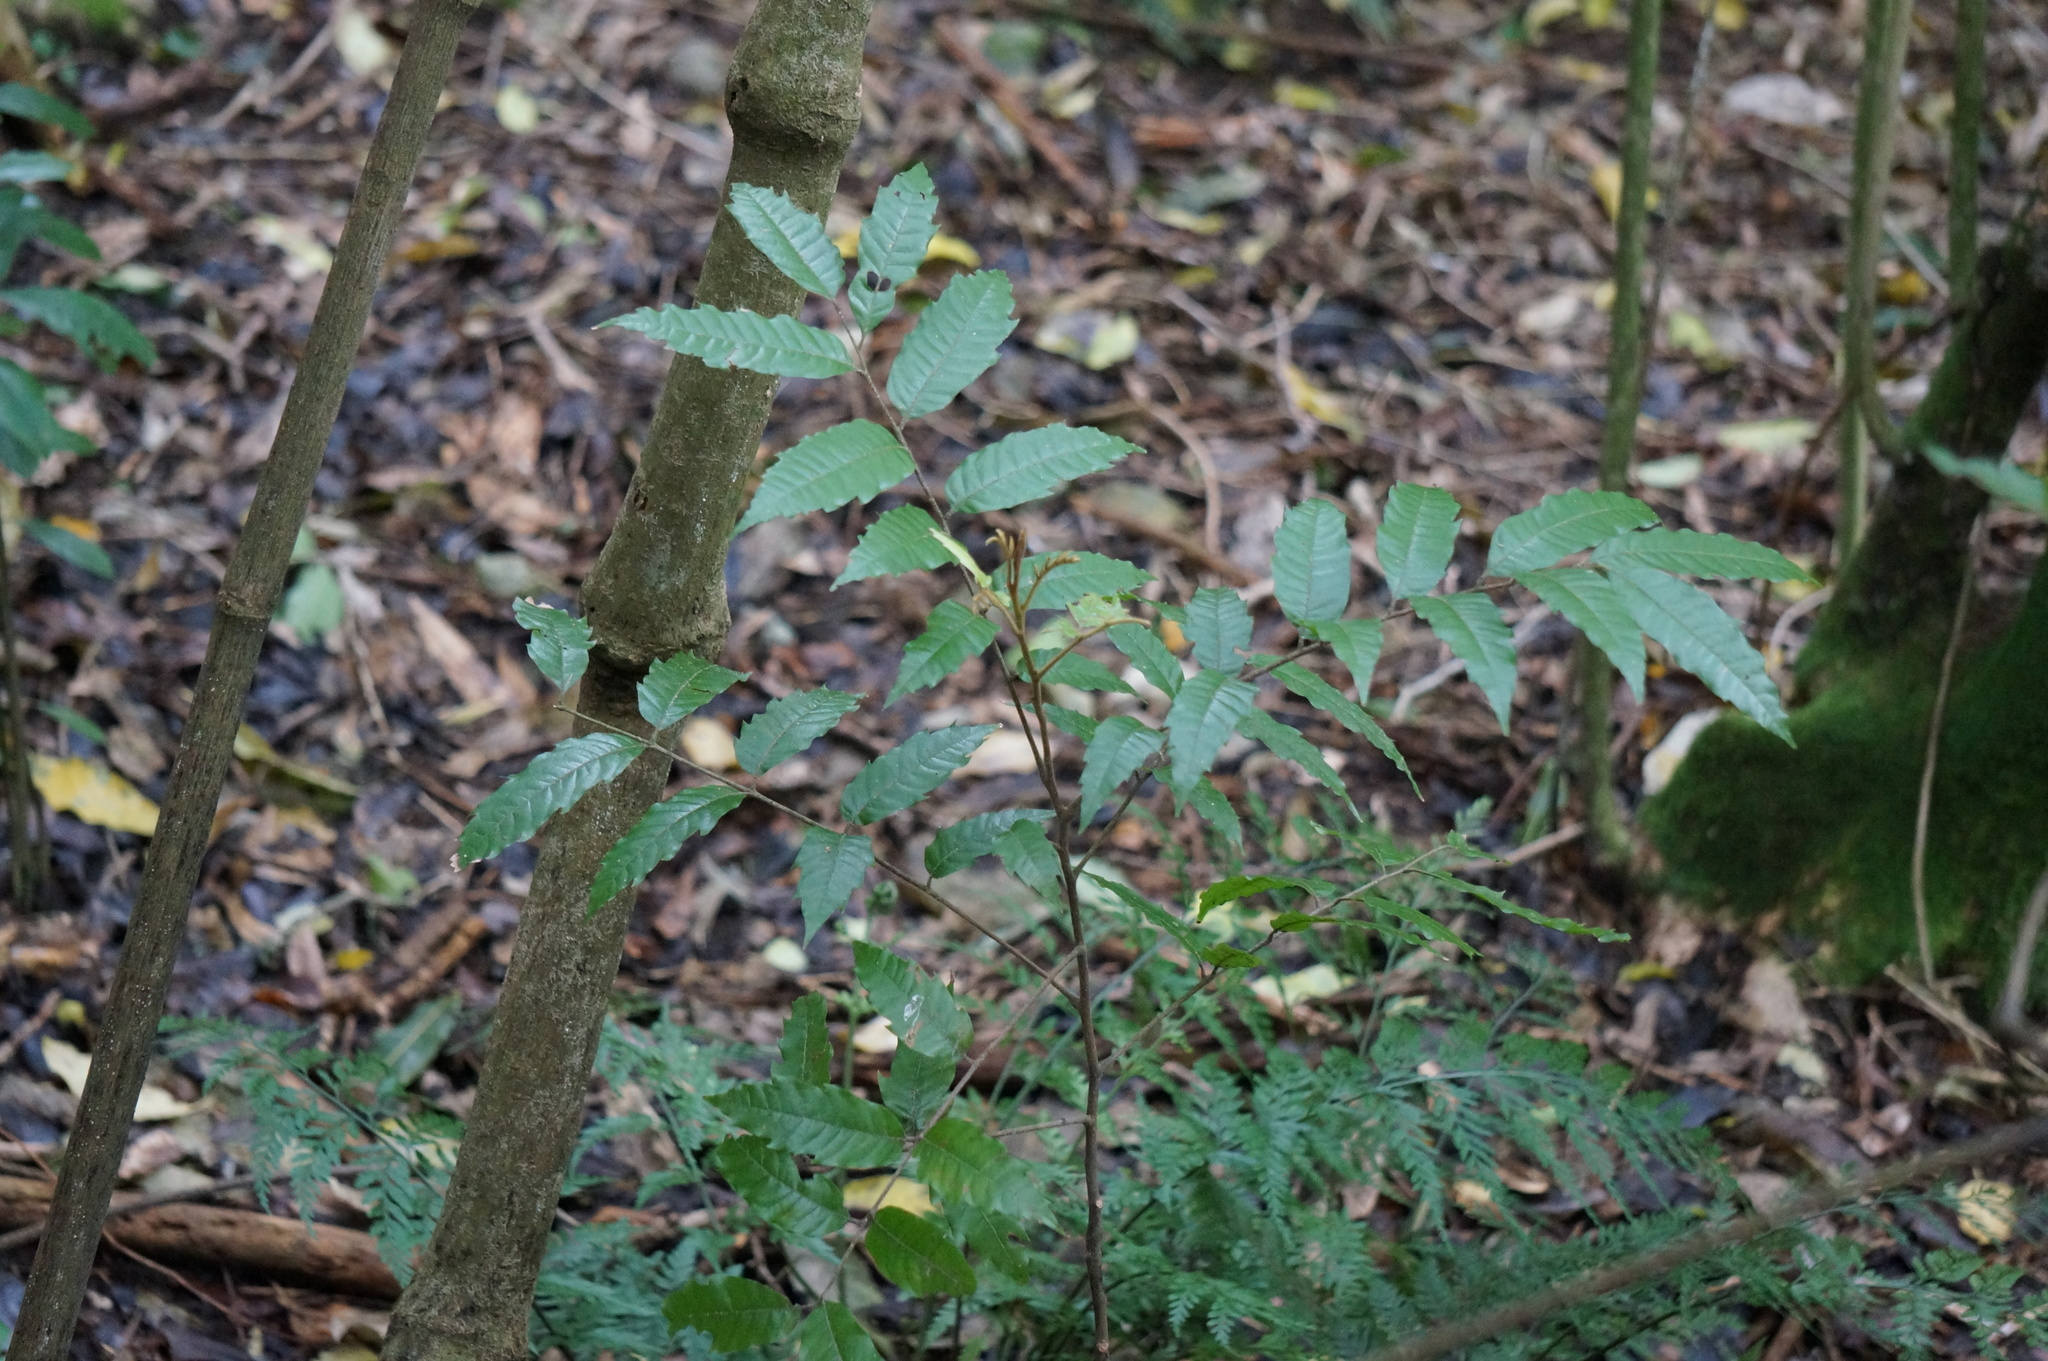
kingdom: Plantae
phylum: Tracheophyta
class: Magnoliopsida
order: Sapindales
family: Sapindaceae
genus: Alectryon
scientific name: Alectryon excelsus
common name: Three kings titoki
